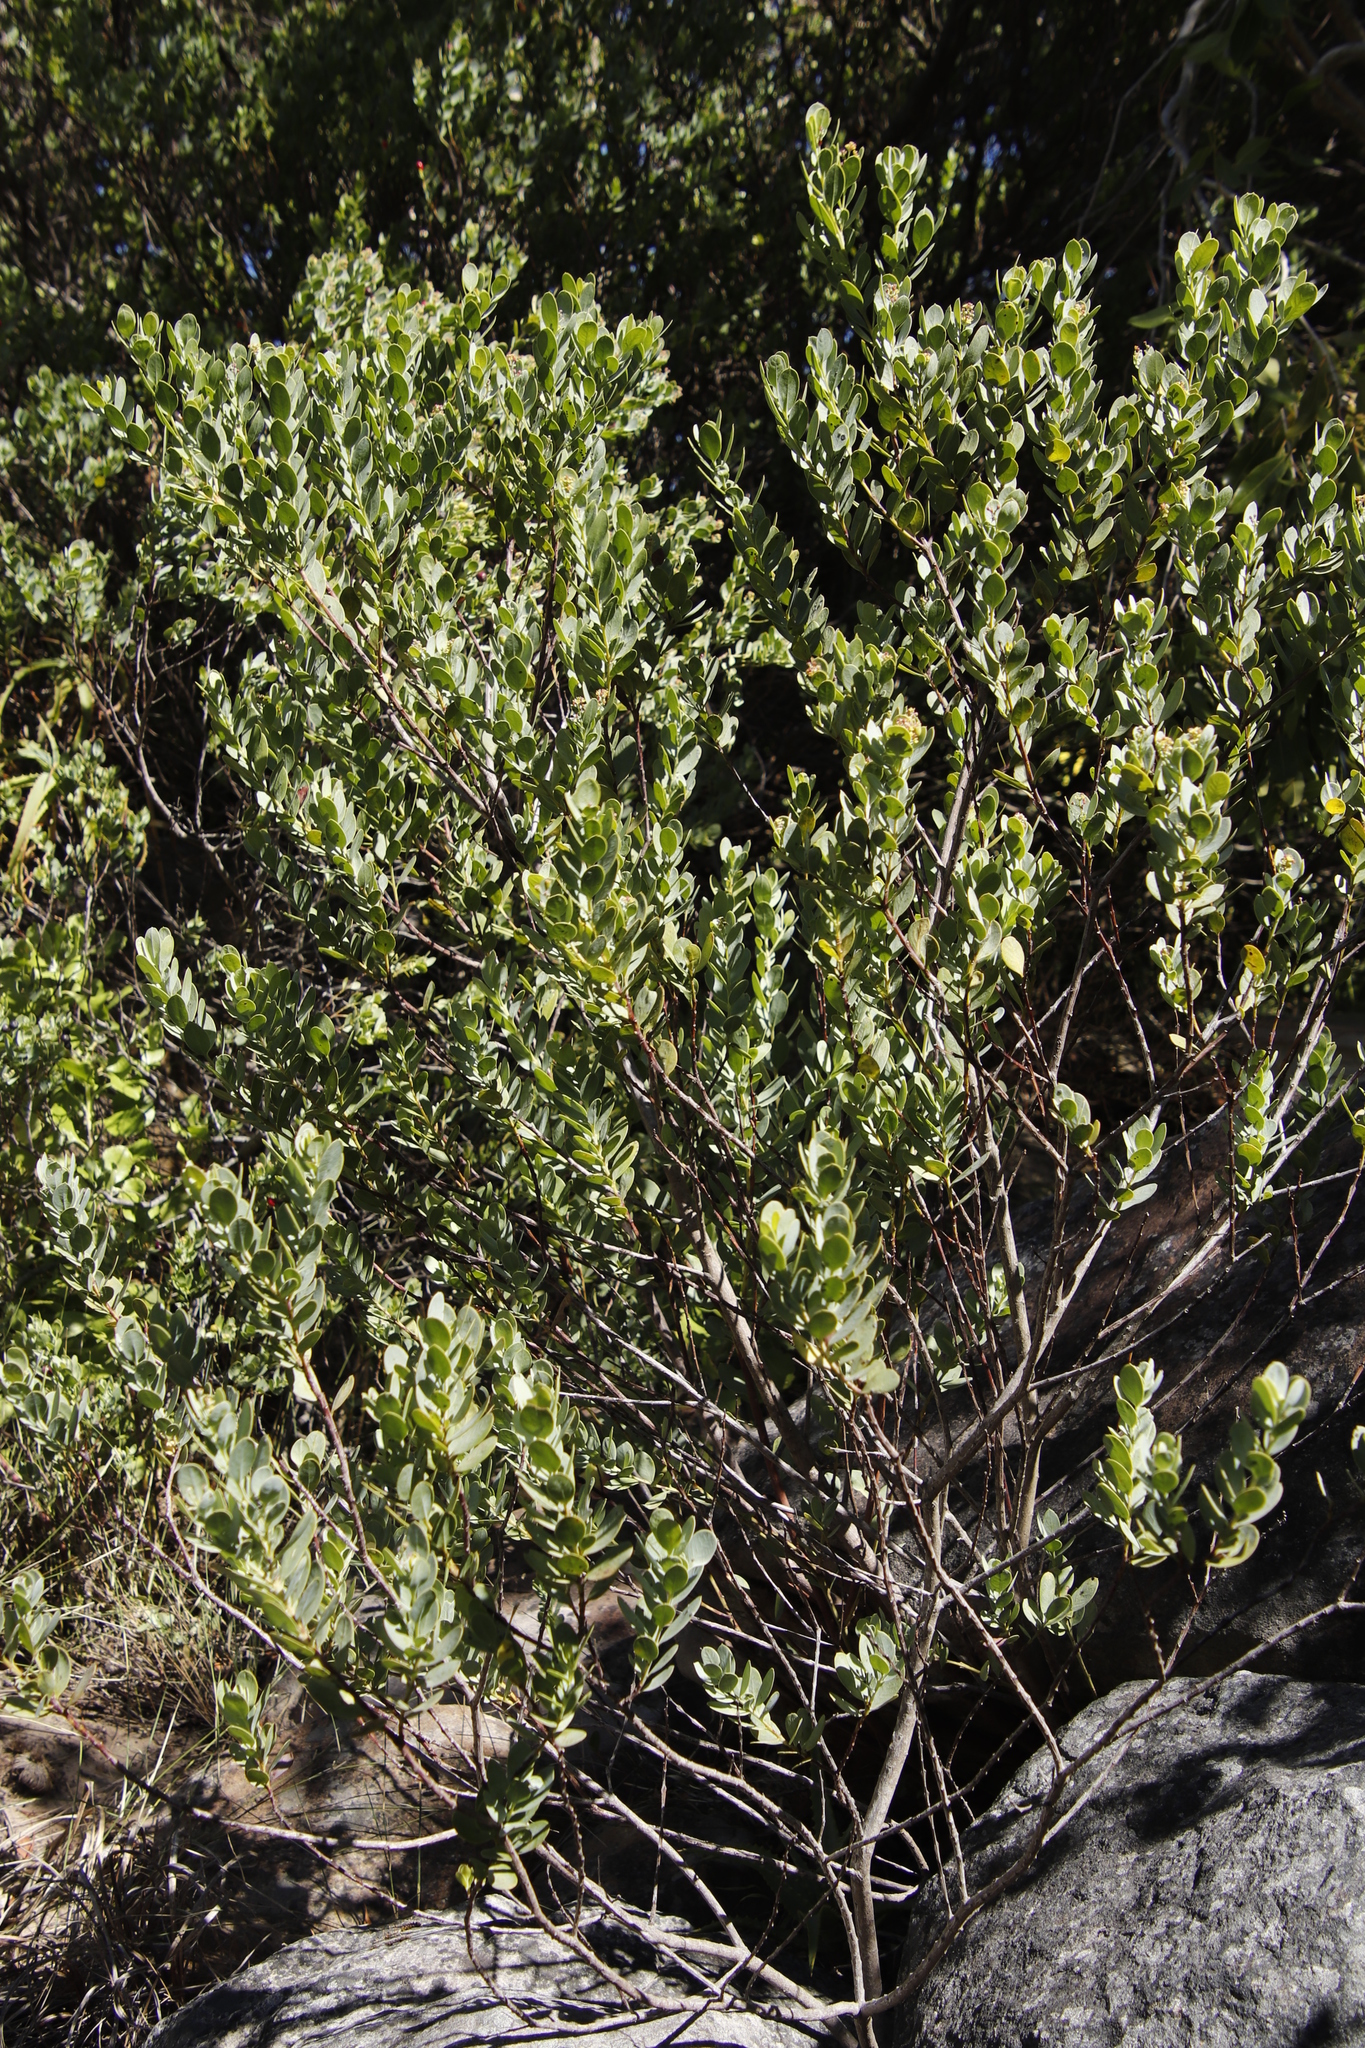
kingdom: Plantae
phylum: Tracheophyta
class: Magnoliopsida
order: Santalales
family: Santalaceae
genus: Osyris
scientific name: Osyris compressa
